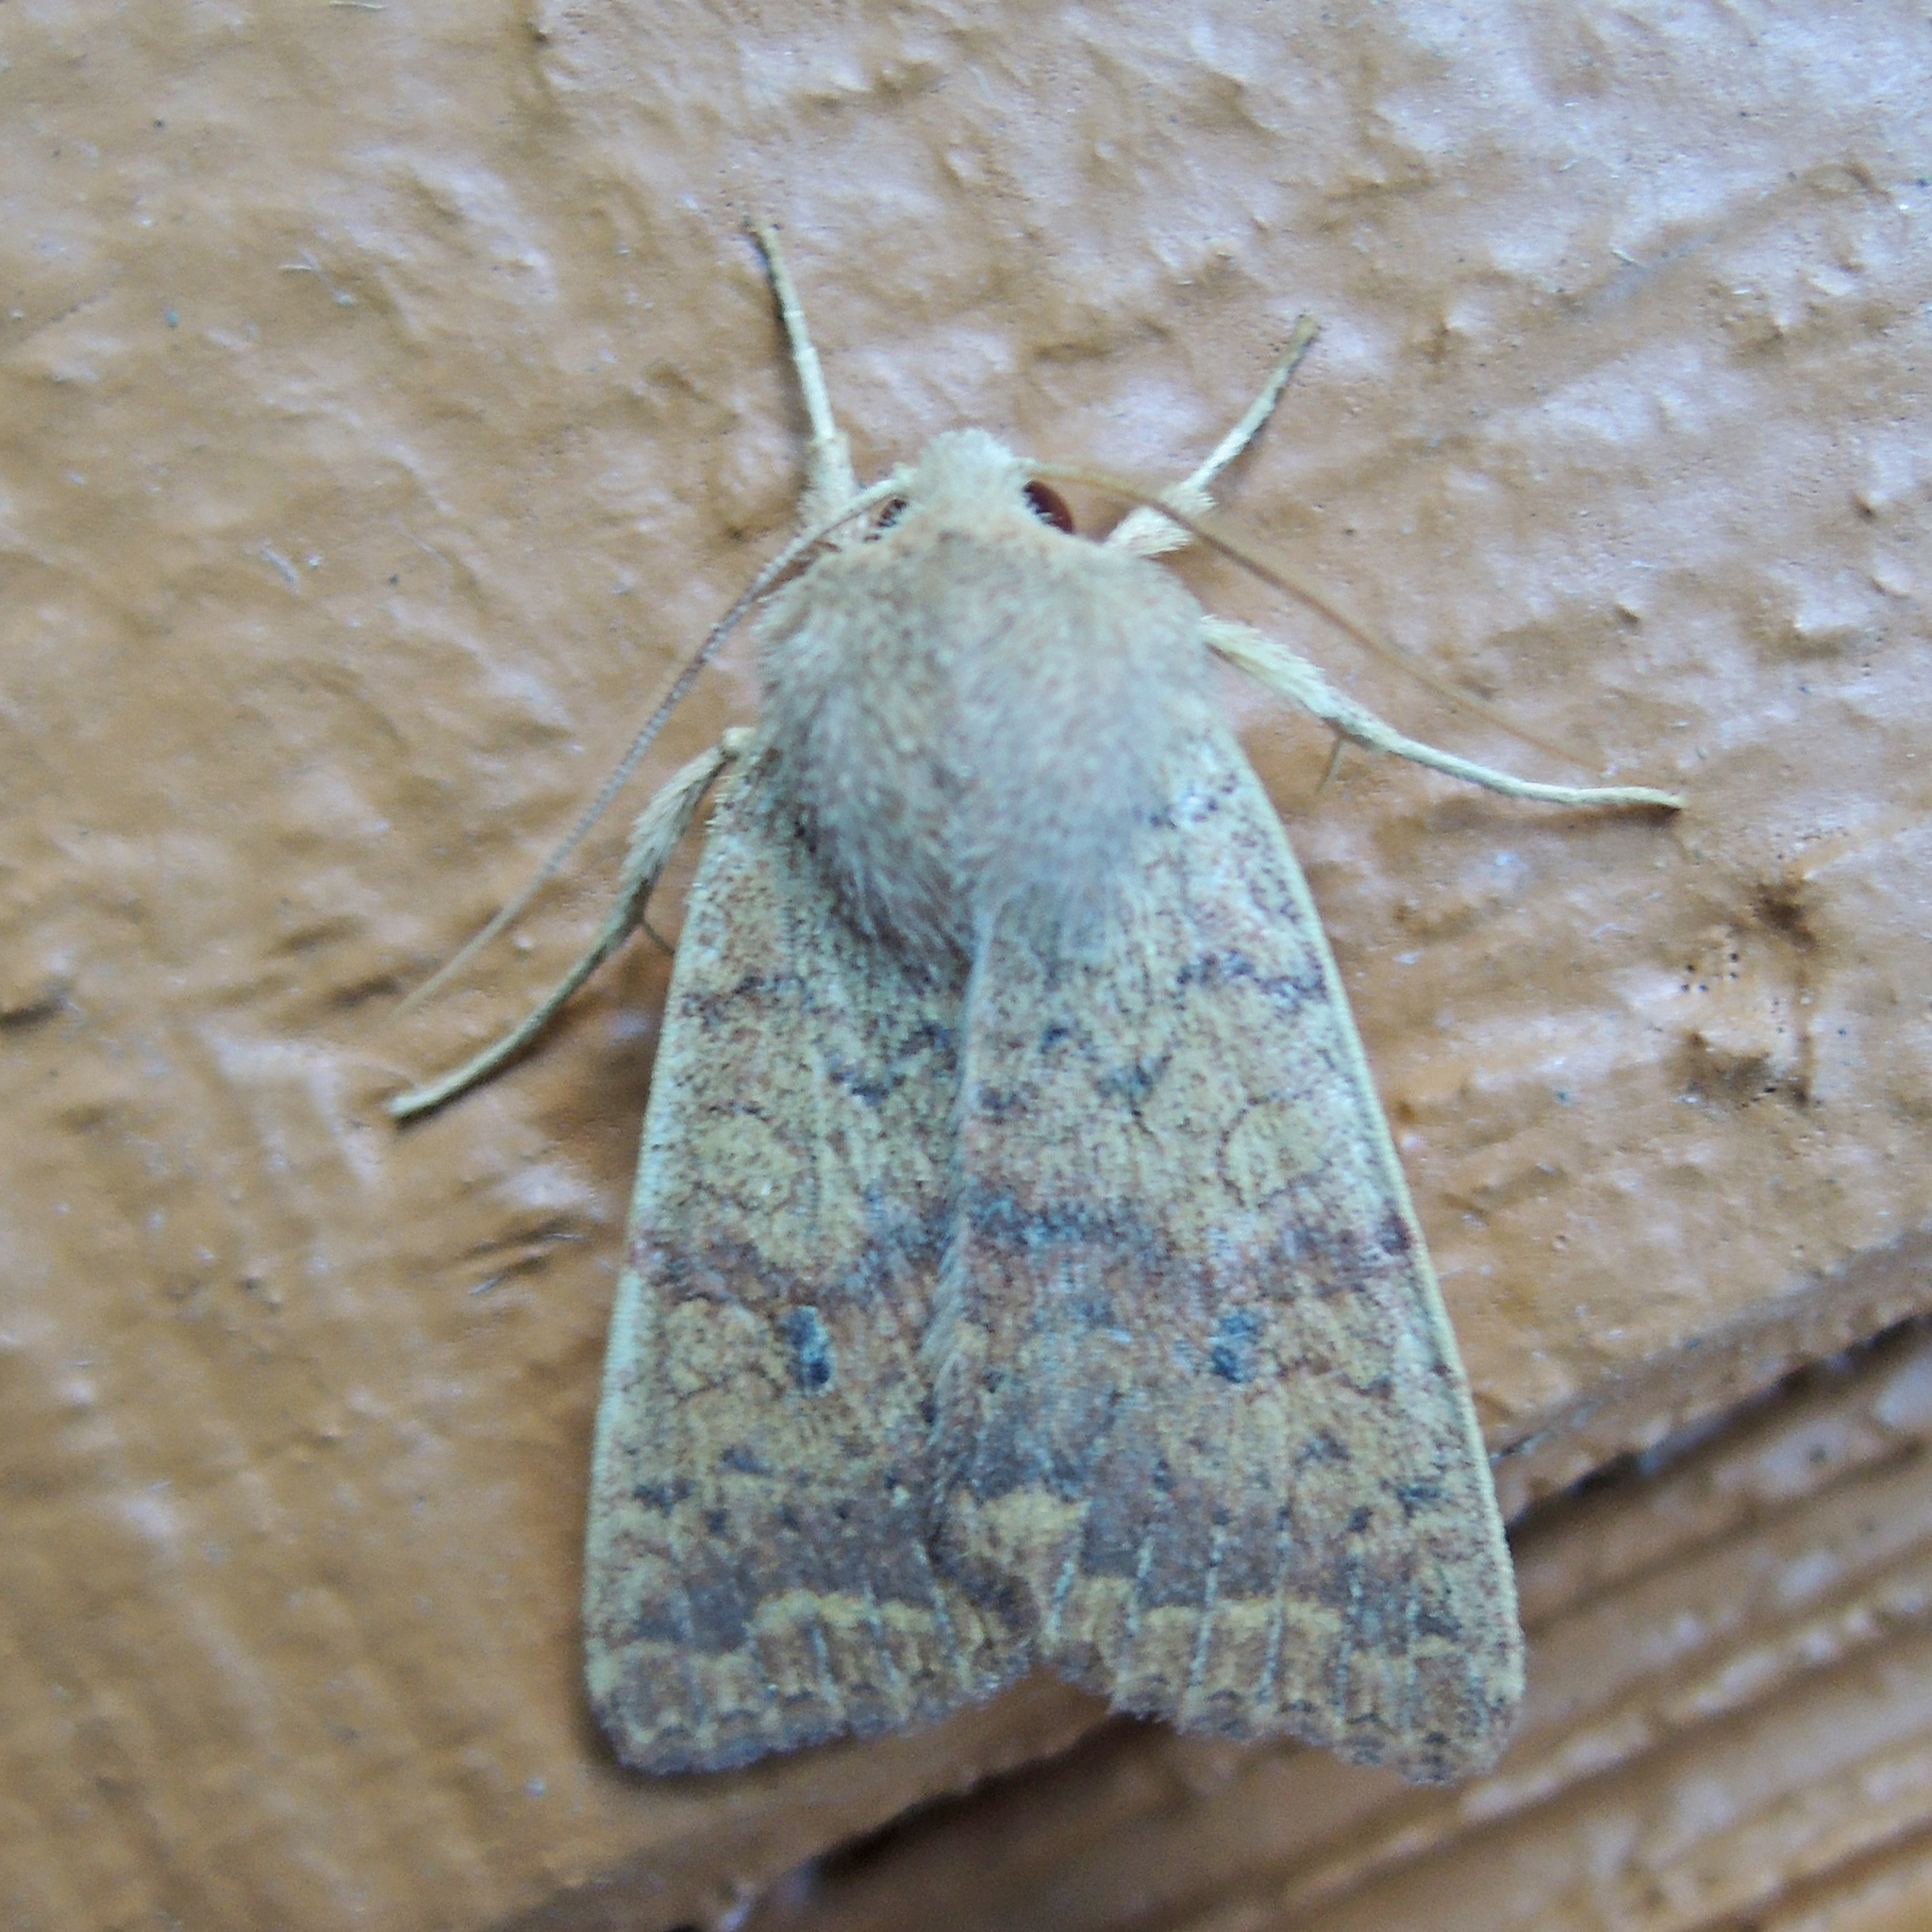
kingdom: Animalia
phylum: Arthropoda
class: Insecta
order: Lepidoptera
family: Noctuidae
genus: Agrochola
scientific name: Agrochola bicolorago
